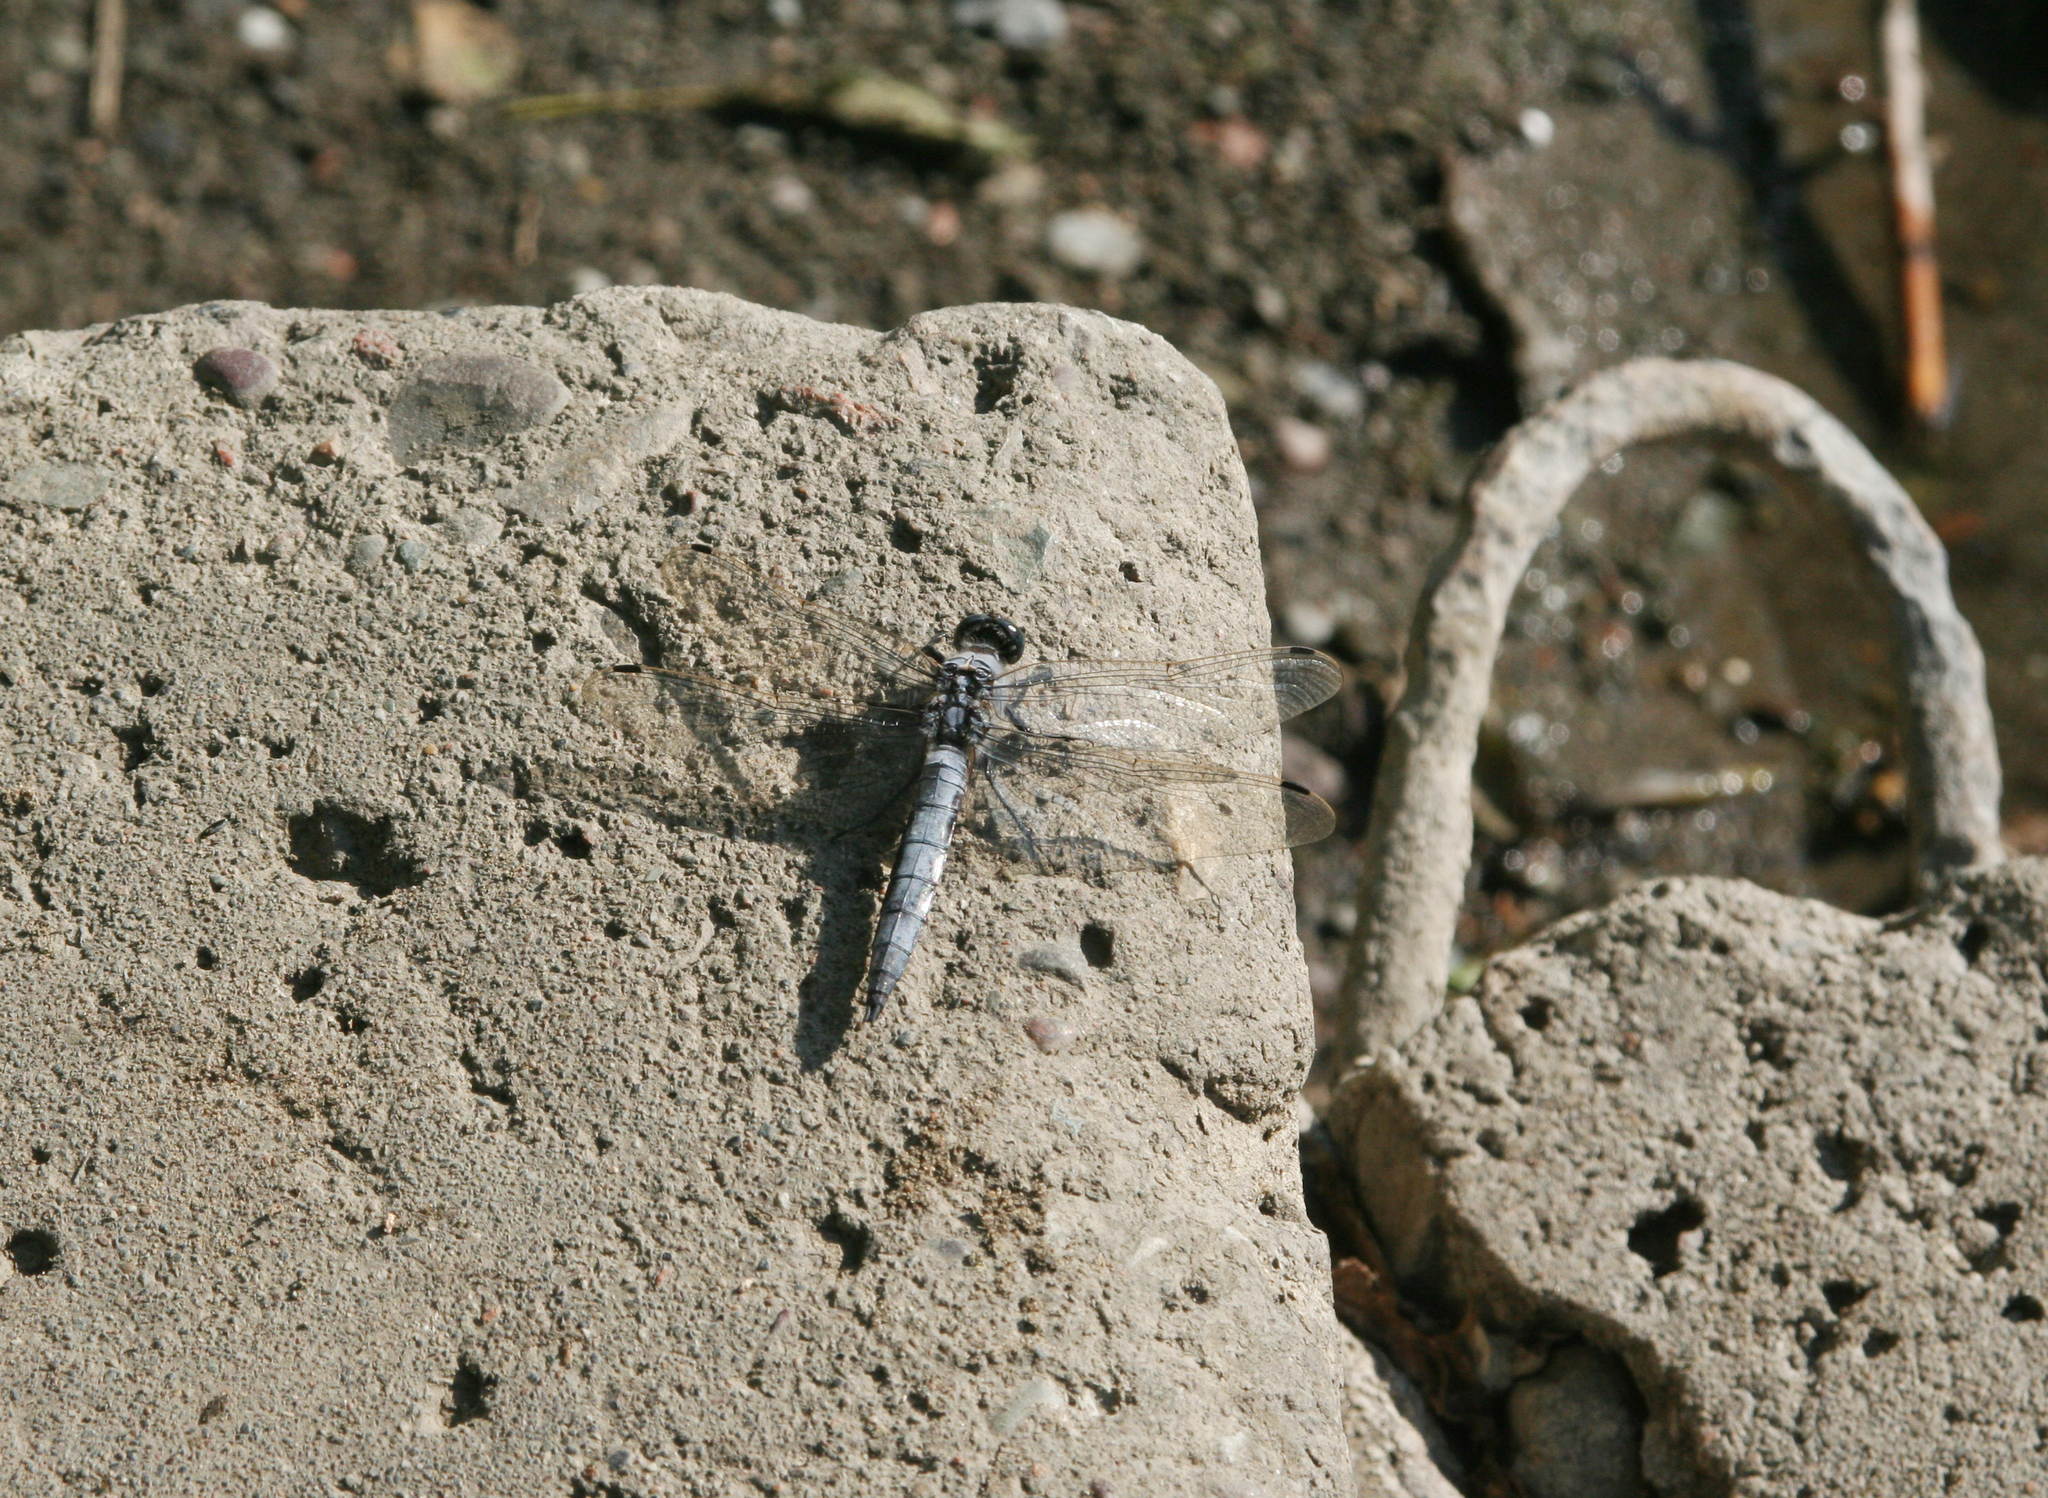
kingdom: Animalia
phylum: Arthropoda
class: Insecta
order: Odonata
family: Libellulidae
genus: Orthetrum
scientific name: Orthetrum cancellatum
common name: Black-tailed skimmer
